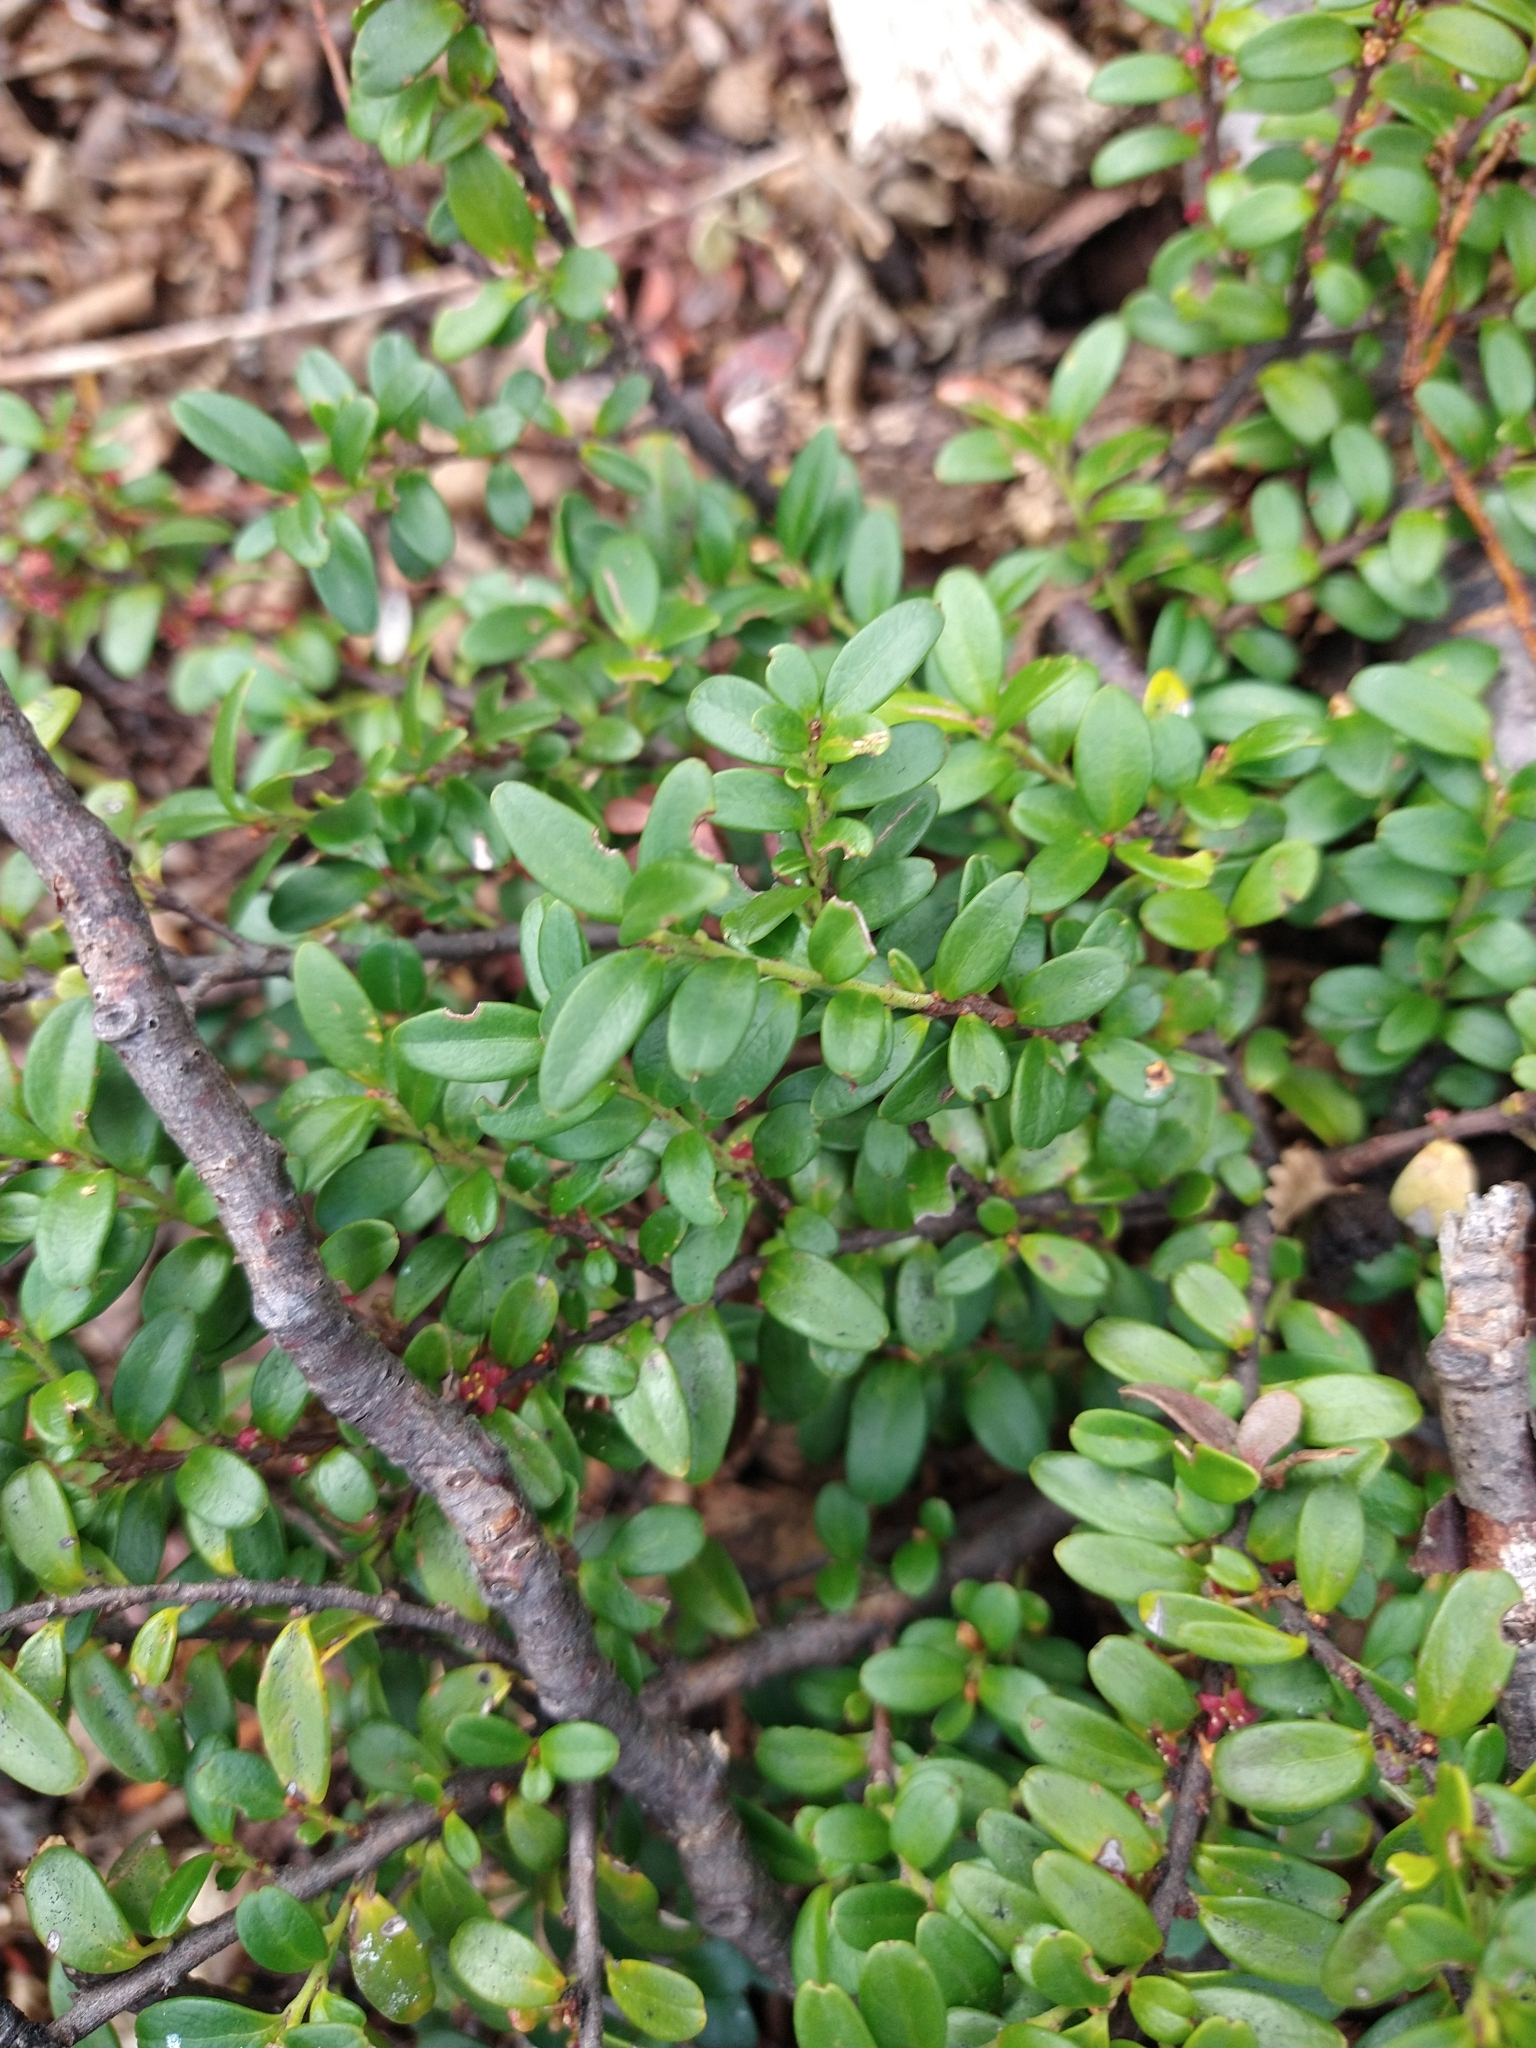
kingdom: Plantae
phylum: Tracheophyta
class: Magnoliopsida
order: Celastrales
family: Celastraceae
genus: Maytenus
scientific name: Maytenus disticha
